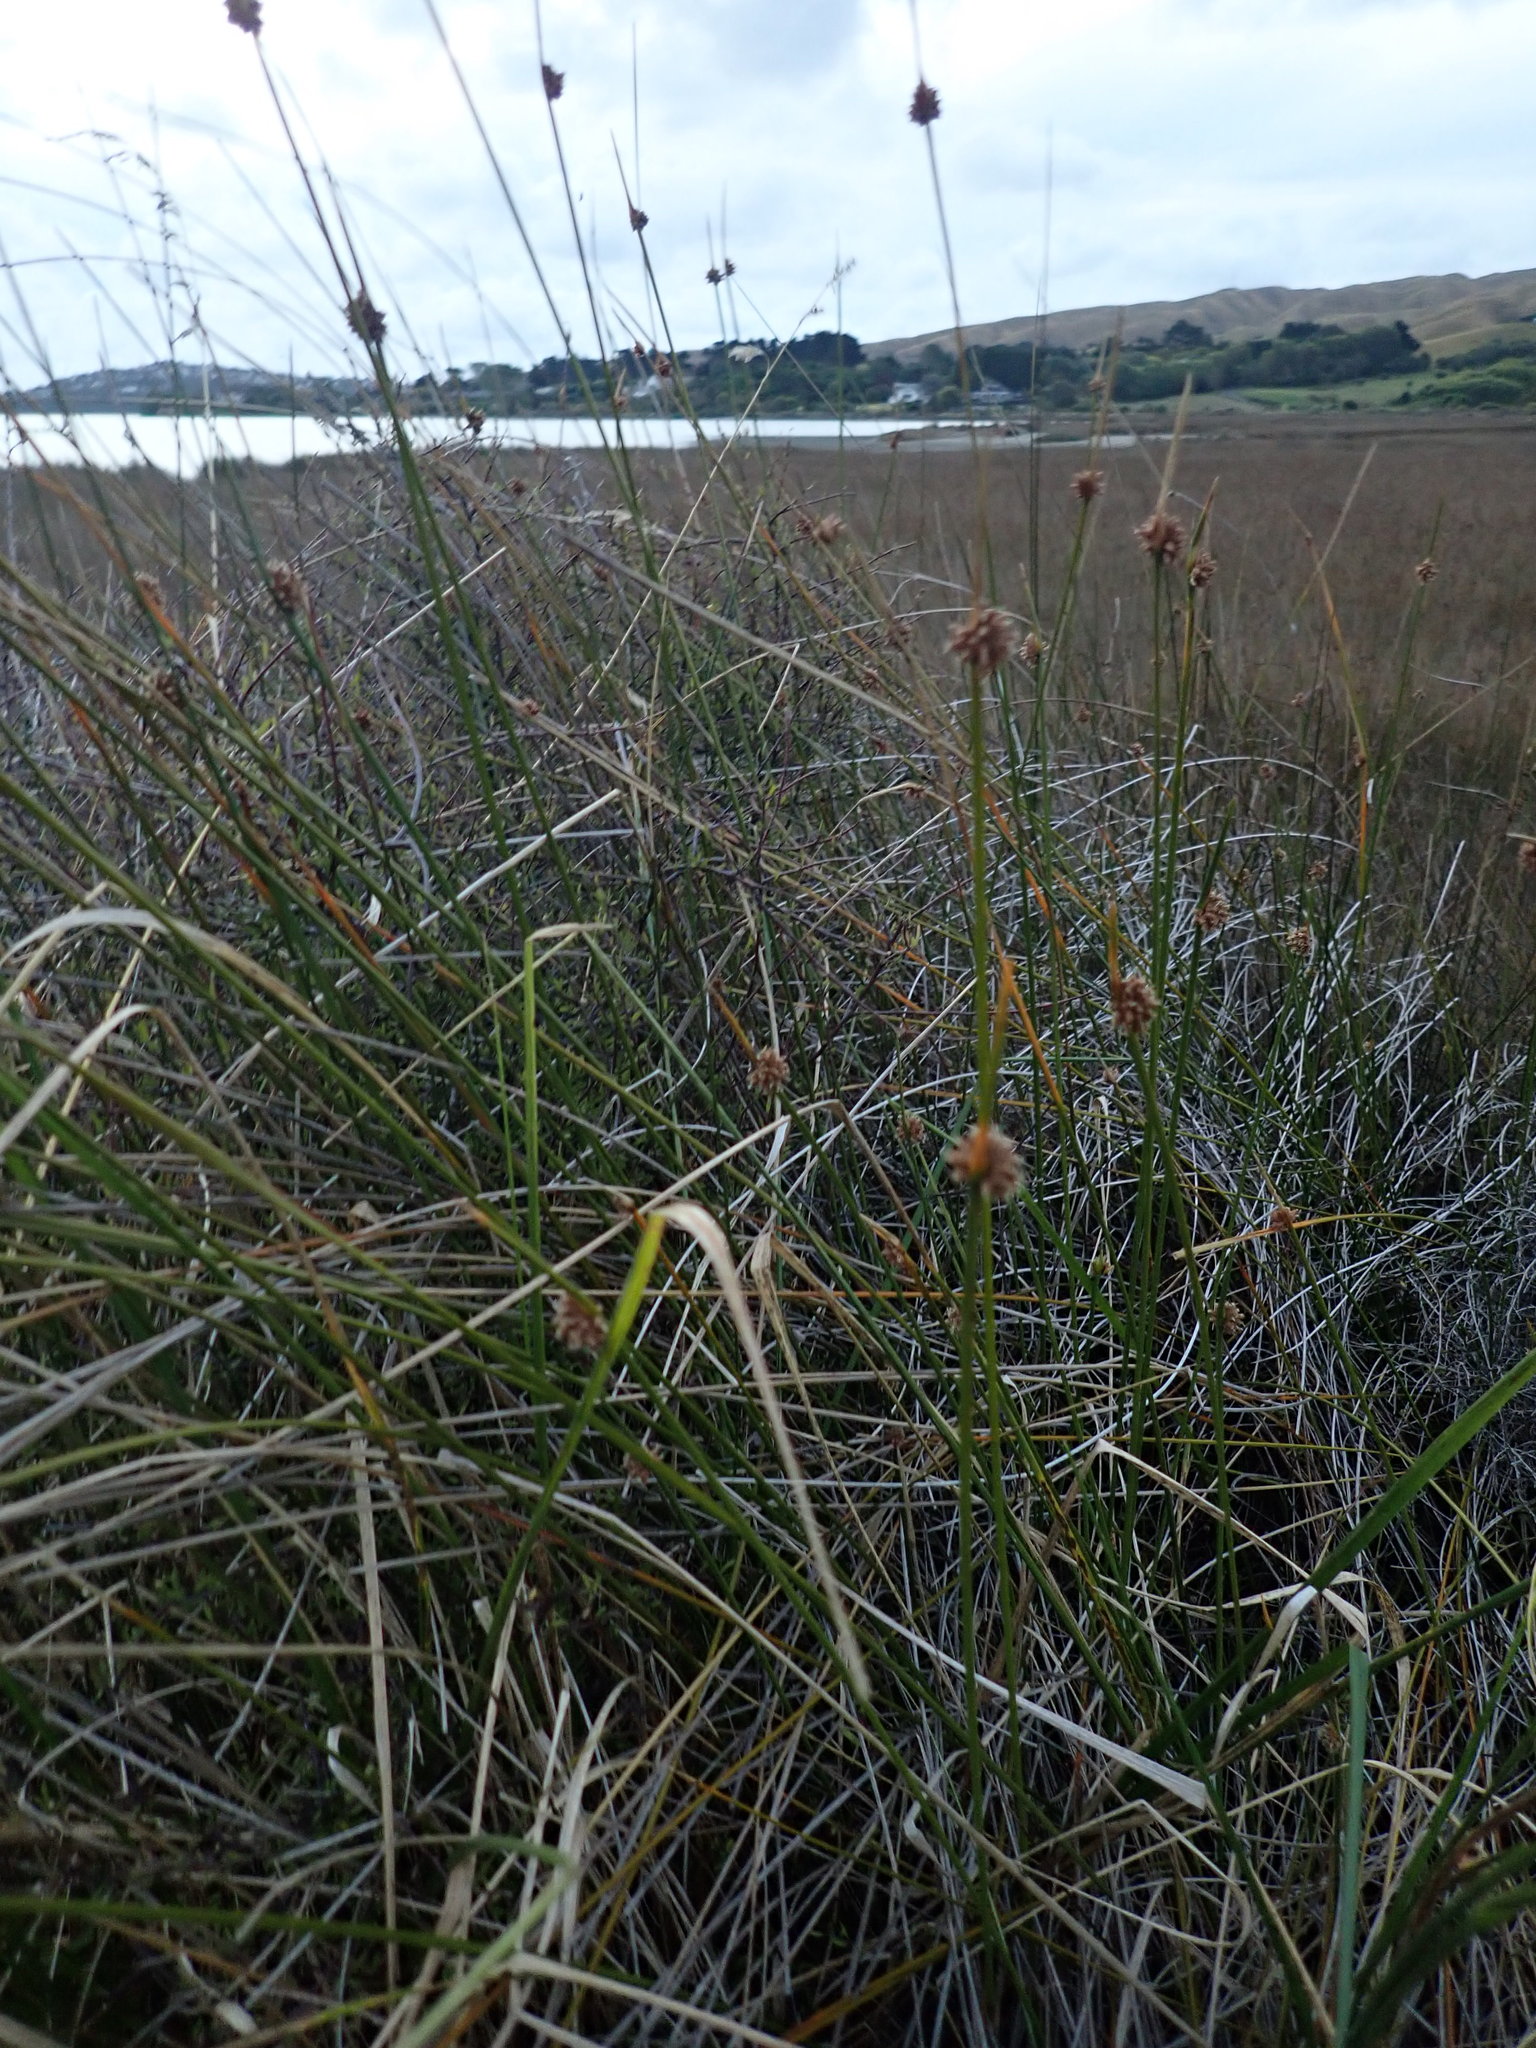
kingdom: Plantae
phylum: Tracheophyta
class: Liliopsida
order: Poales
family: Cyperaceae
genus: Ficinia
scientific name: Ficinia nodosa
